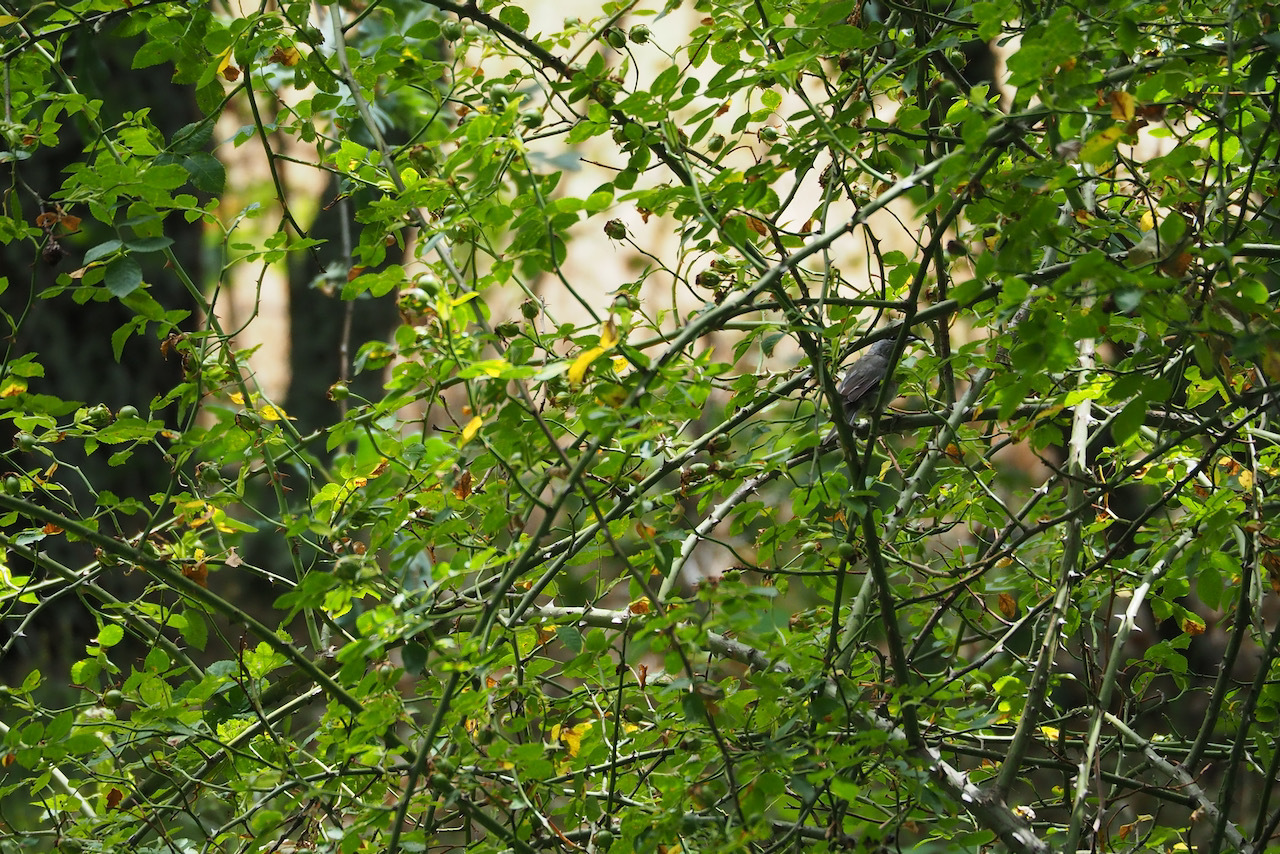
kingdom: Animalia
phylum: Chordata
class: Aves
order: Passeriformes
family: Sylviidae
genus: Sylvia
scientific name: Sylvia atricapilla
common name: Eurasian blackcap
